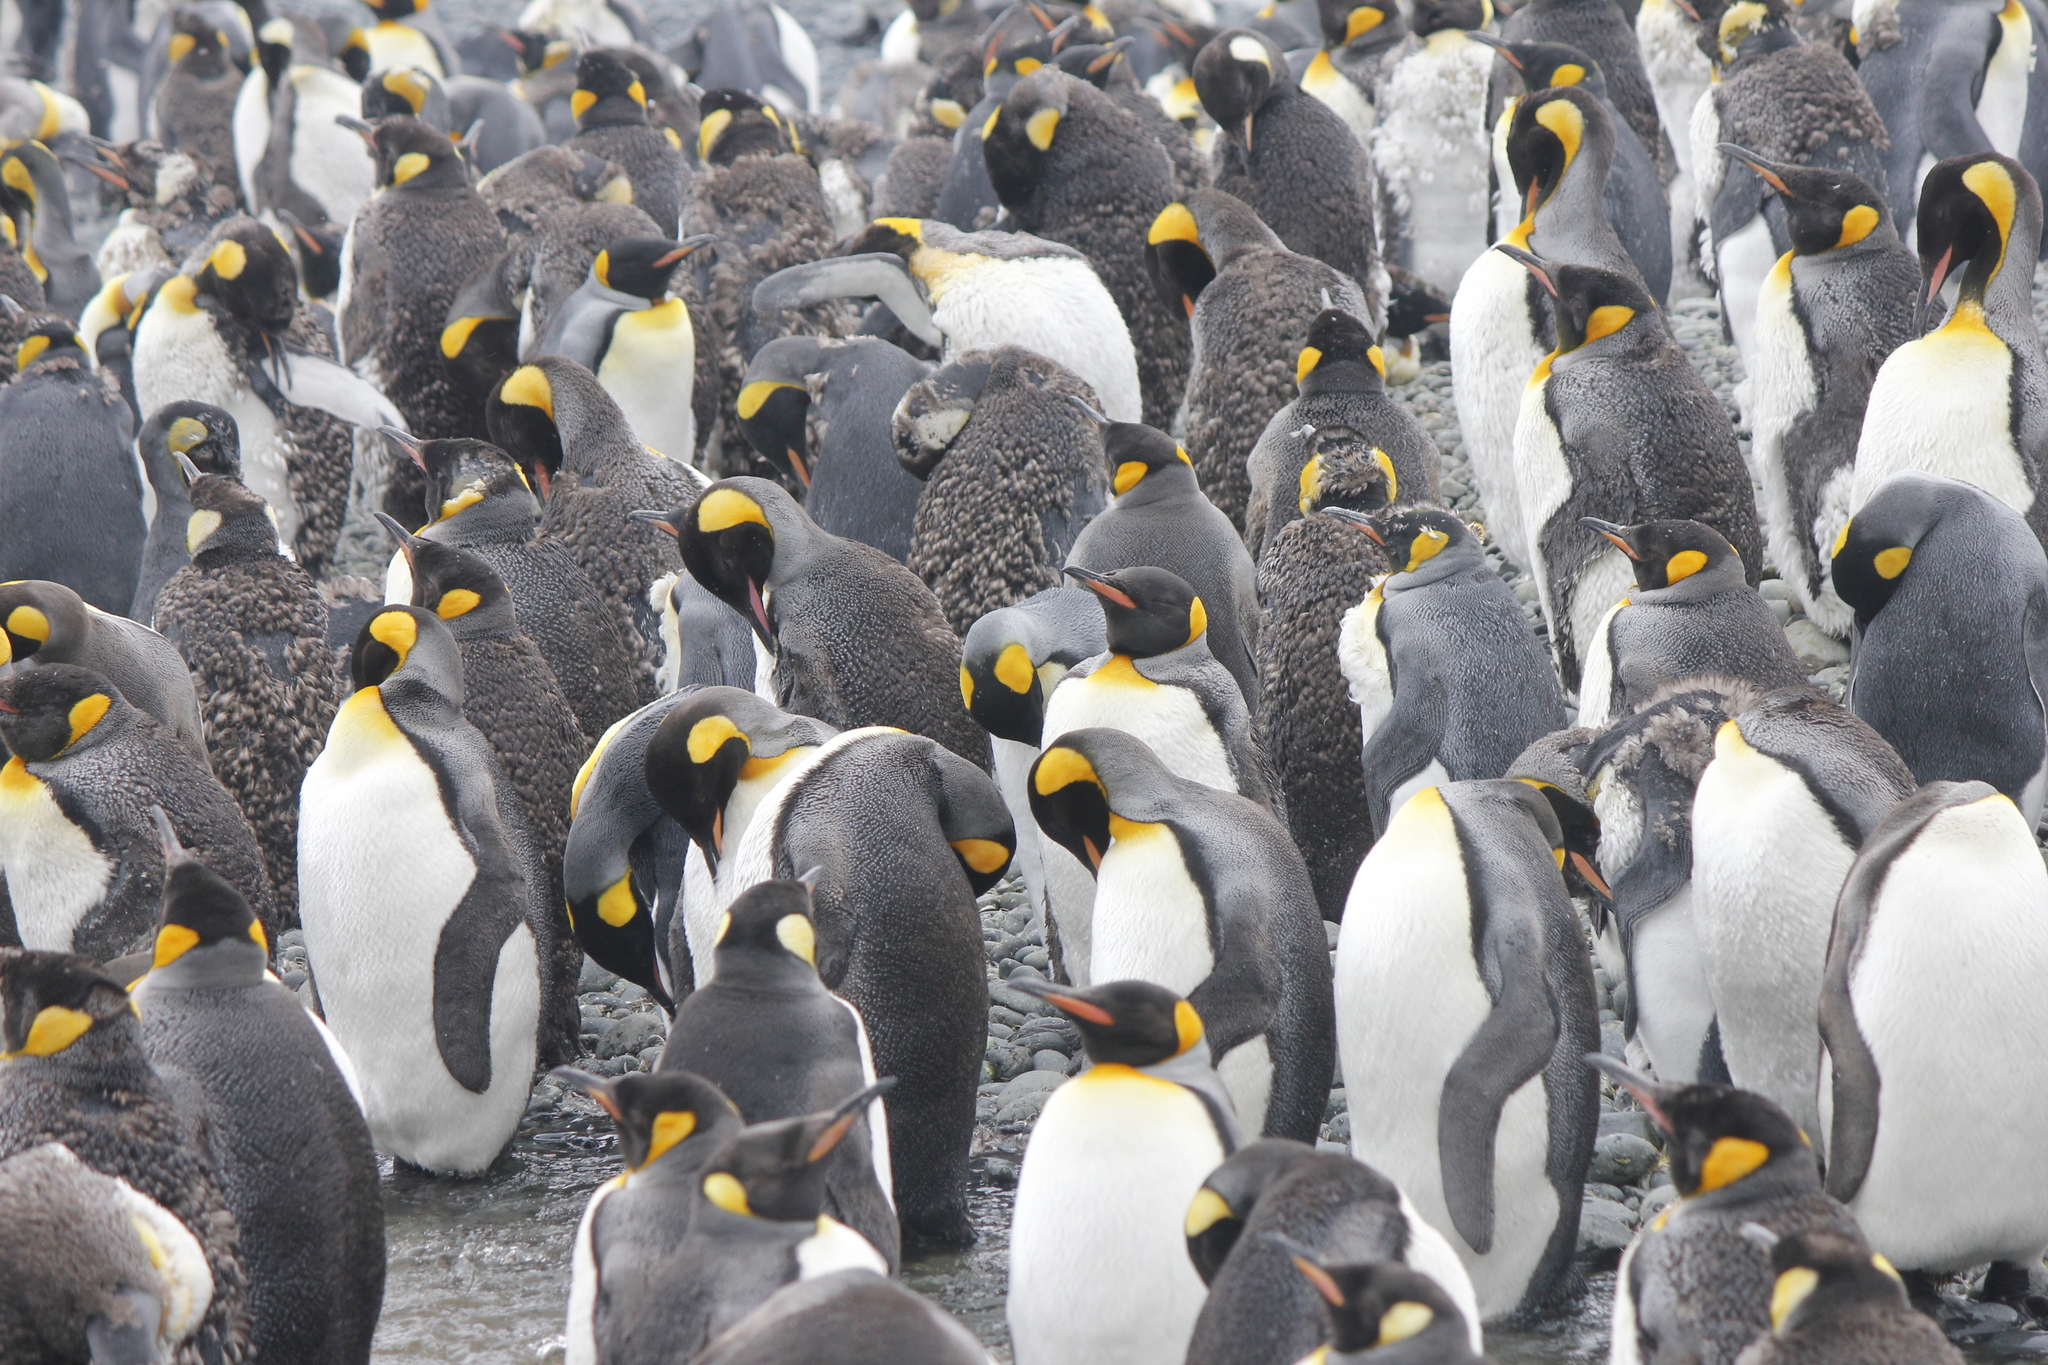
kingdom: Animalia
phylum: Chordata
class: Aves
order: Sphenisciformes
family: Spheniscidae
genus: Aptenodytes
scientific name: Aptenodytes patagonicus
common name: King penguin
